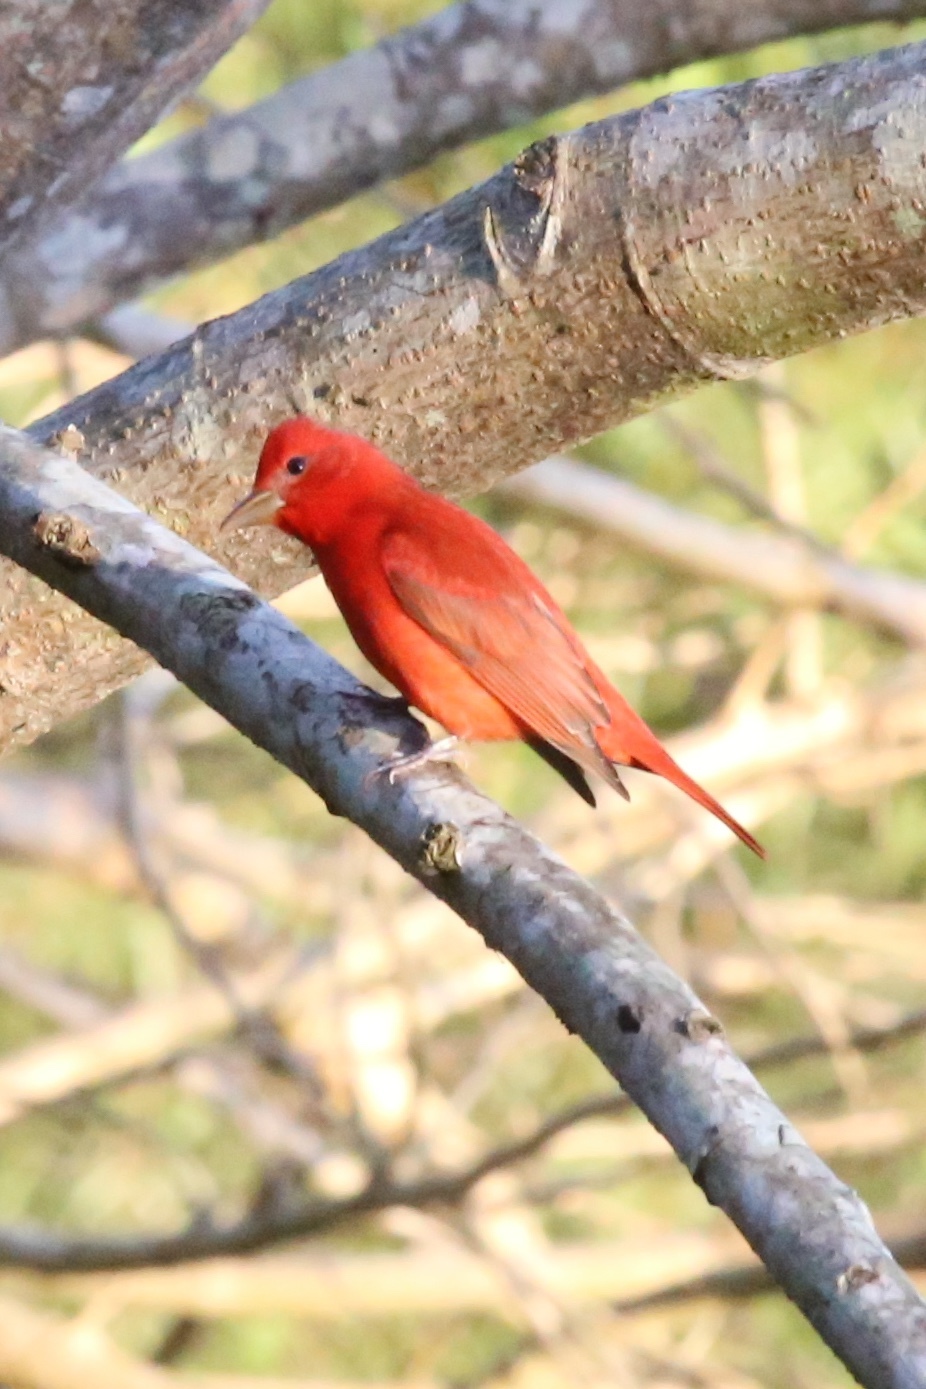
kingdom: Animalia
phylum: Chordata
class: Aves
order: Passeriformes
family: Cardinalidae
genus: Piranga
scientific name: Piranga rubra
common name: Summer tanager
